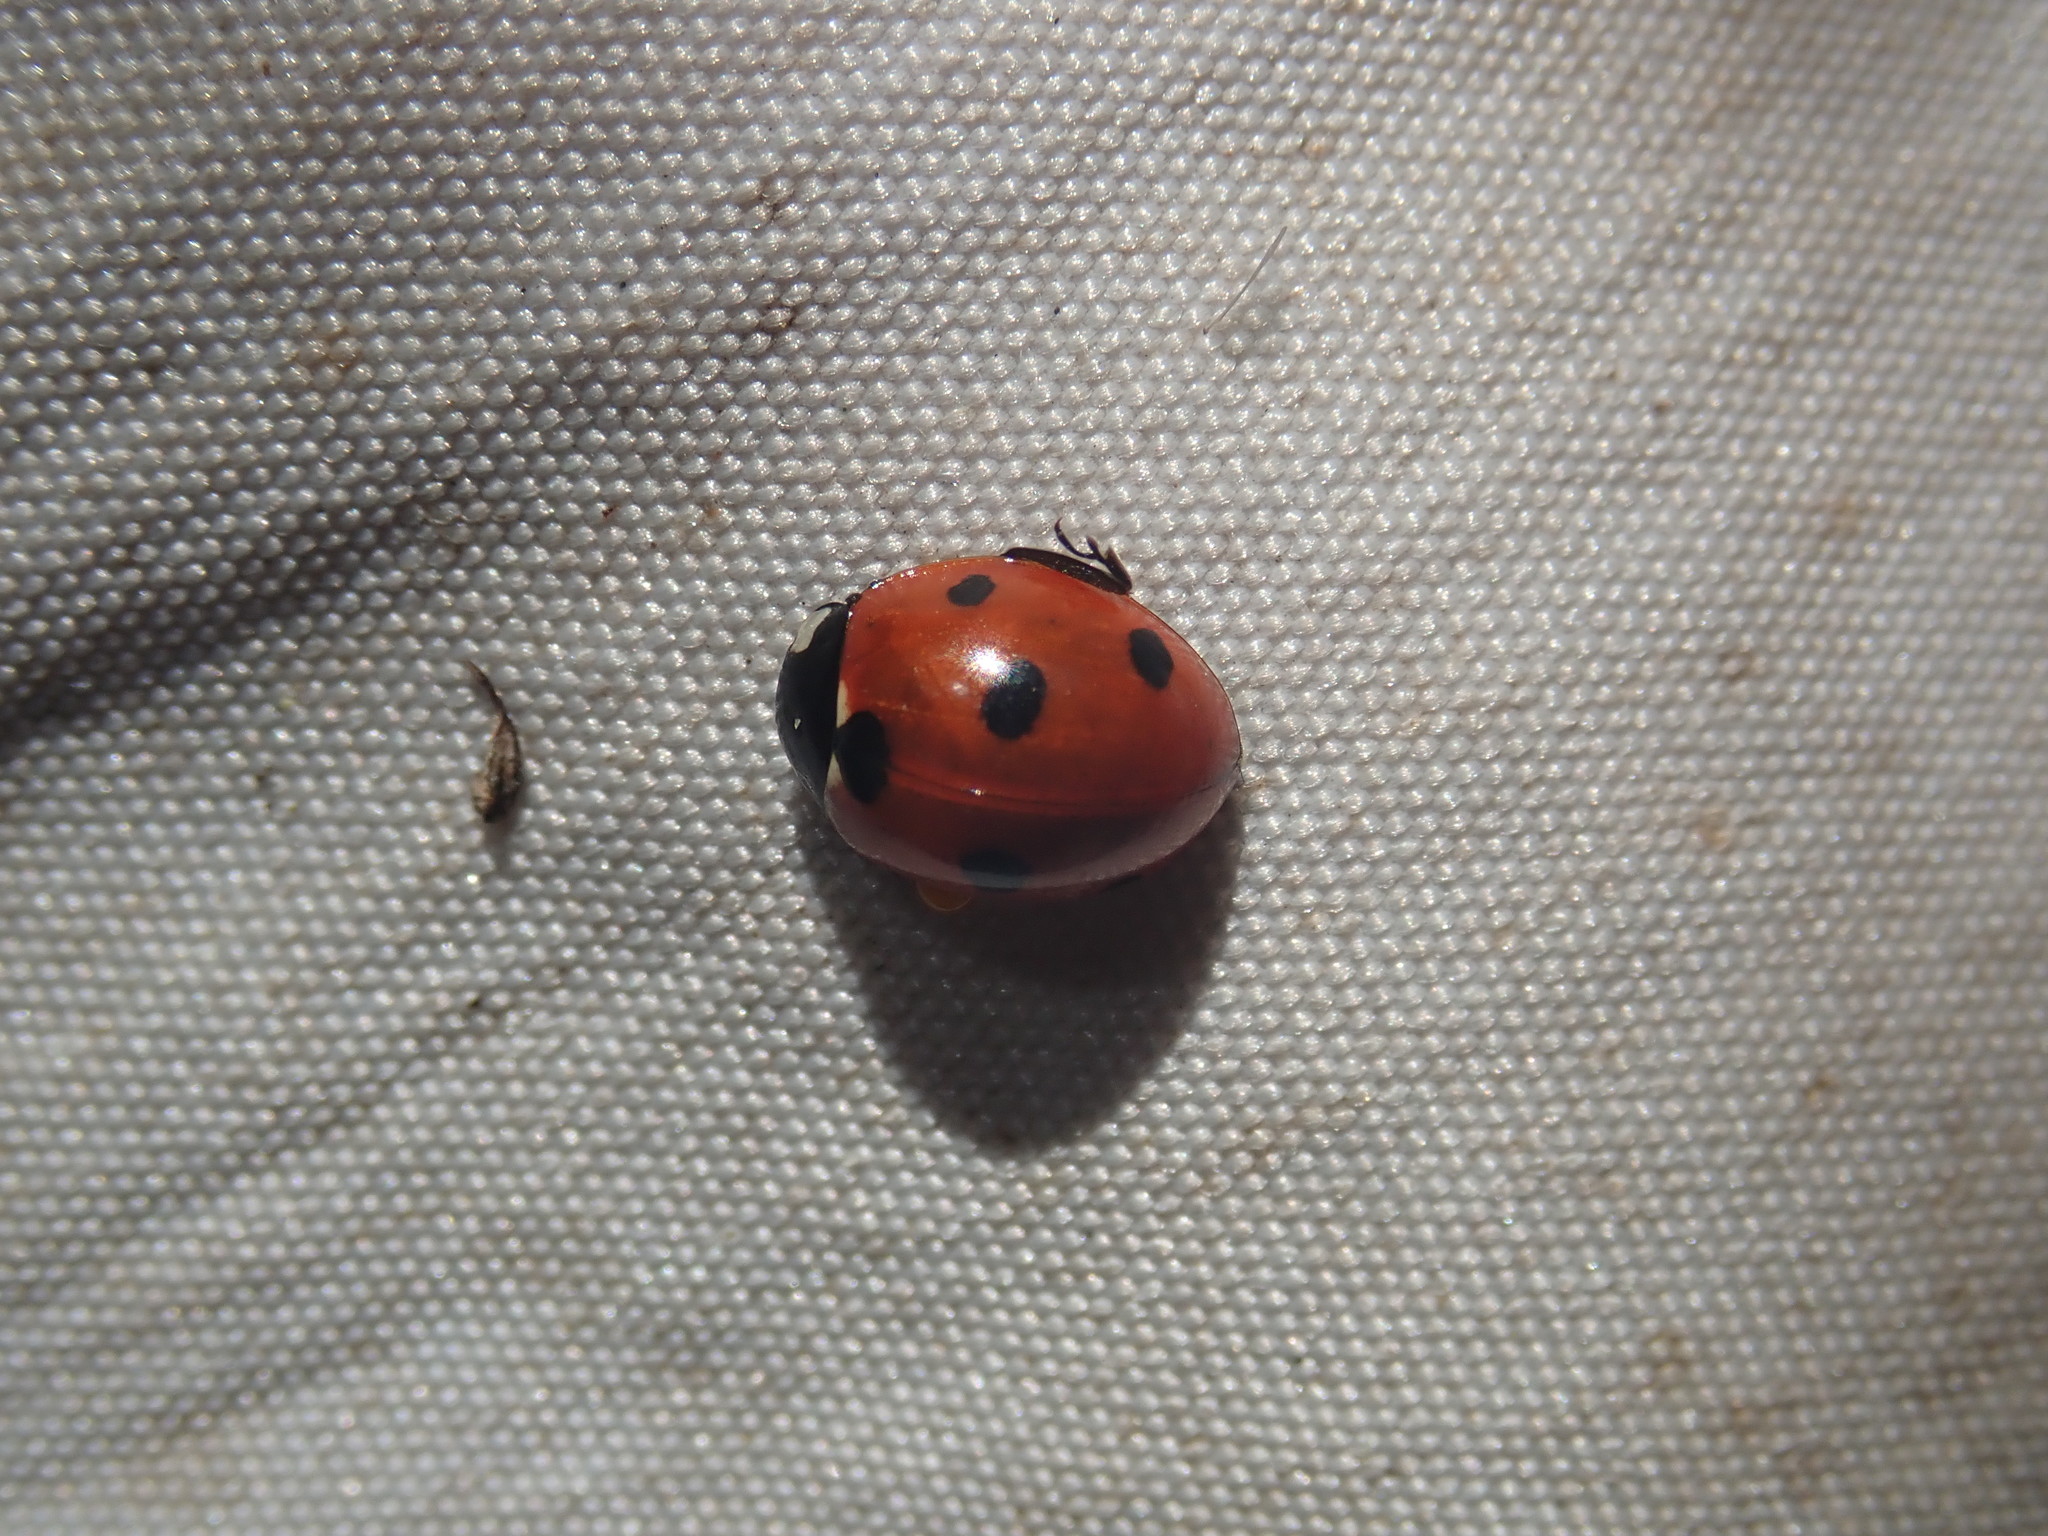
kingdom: Animalia
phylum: Arthropoda
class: Insecta
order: Coleoptera
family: Coccinellidae
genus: Coccinella
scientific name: Coccinella septempunctata
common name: Sevenspotted lady beetle
